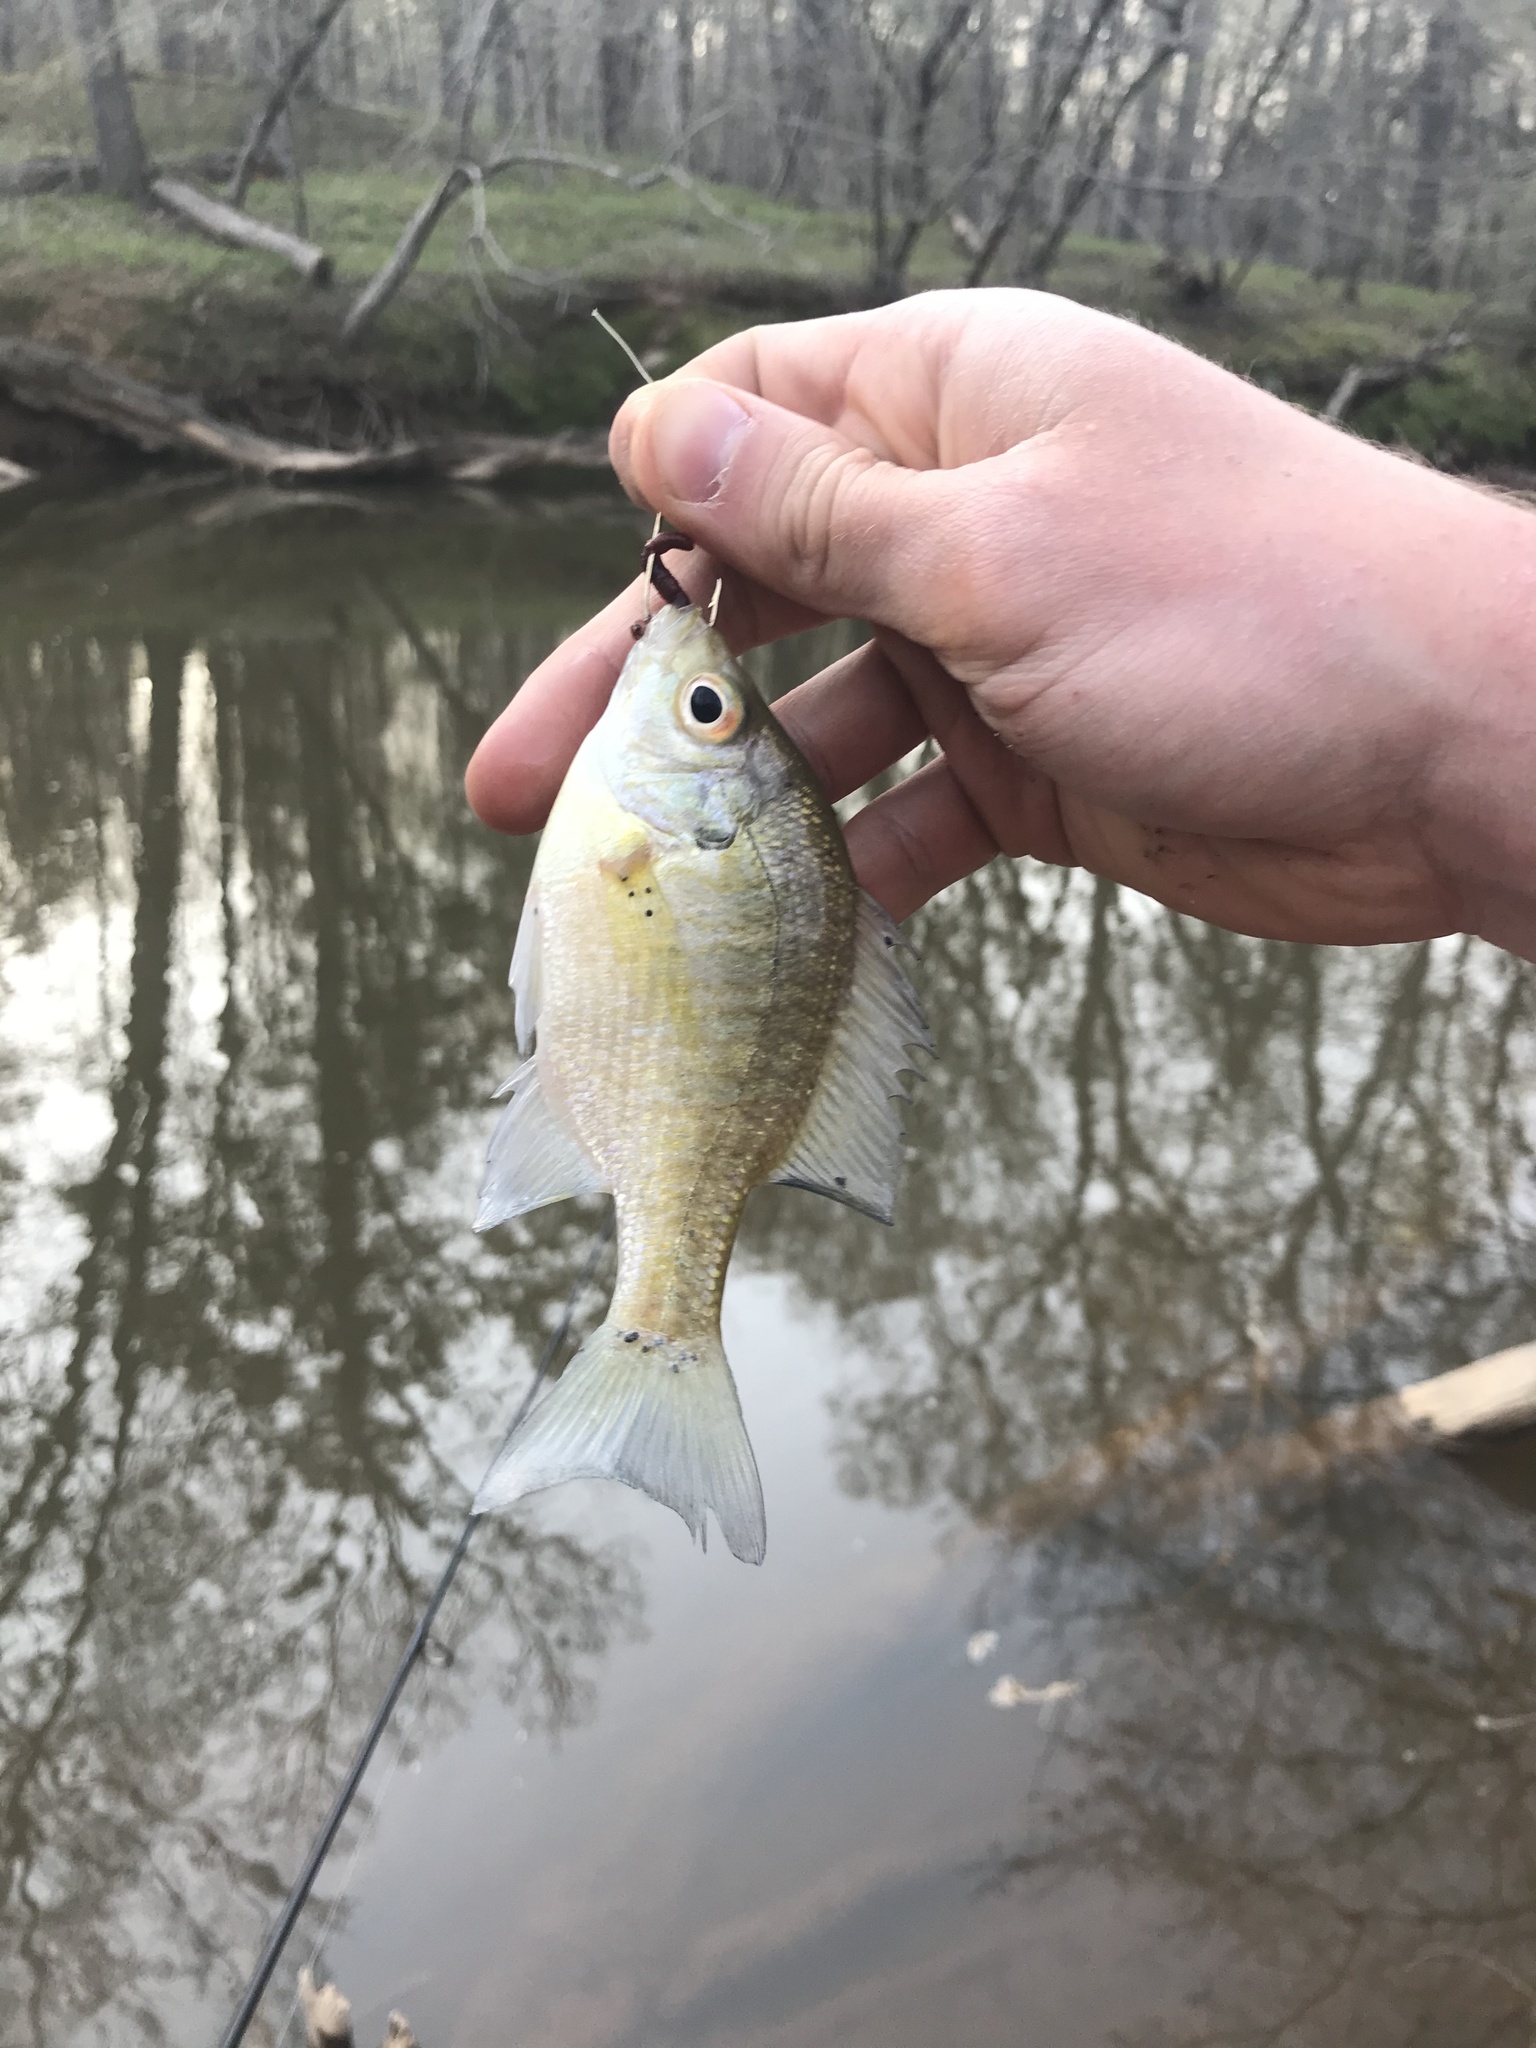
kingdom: Animalia
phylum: Chordata
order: Perciformes
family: Centrarchidae
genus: Lepomis
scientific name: Lepomis macrochirus
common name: Bluegill
